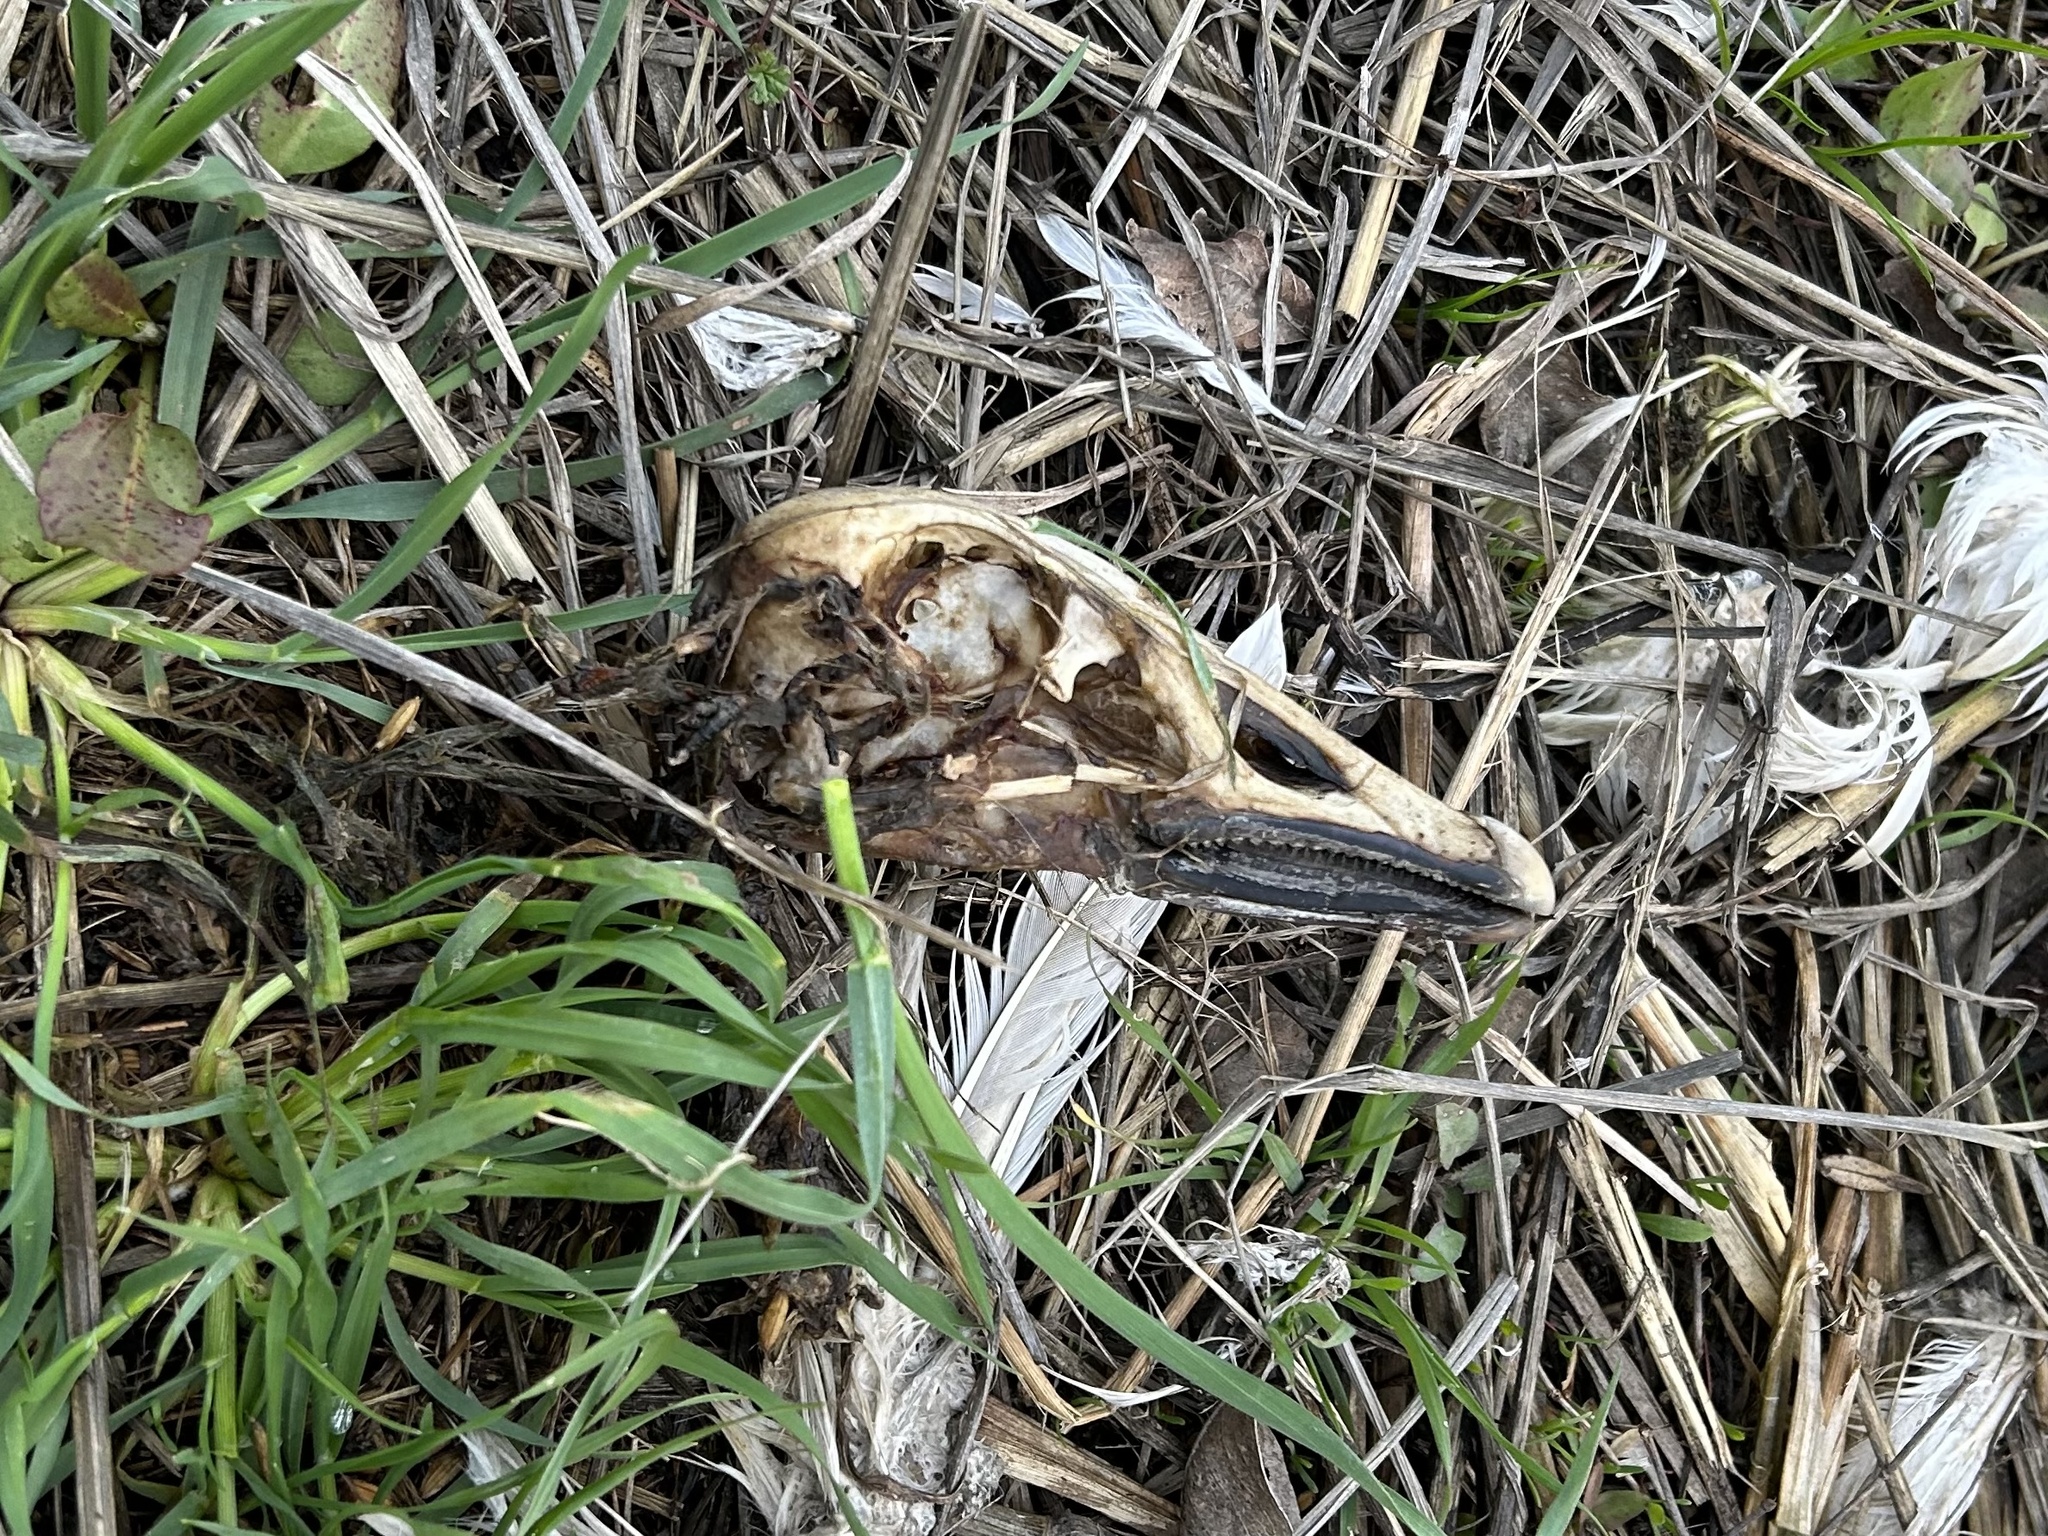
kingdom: Animalia
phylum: Chordata
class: Aves
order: Anseriformes
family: Anatidae
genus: Anser
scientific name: Anser caerulescens
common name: Snow goose
